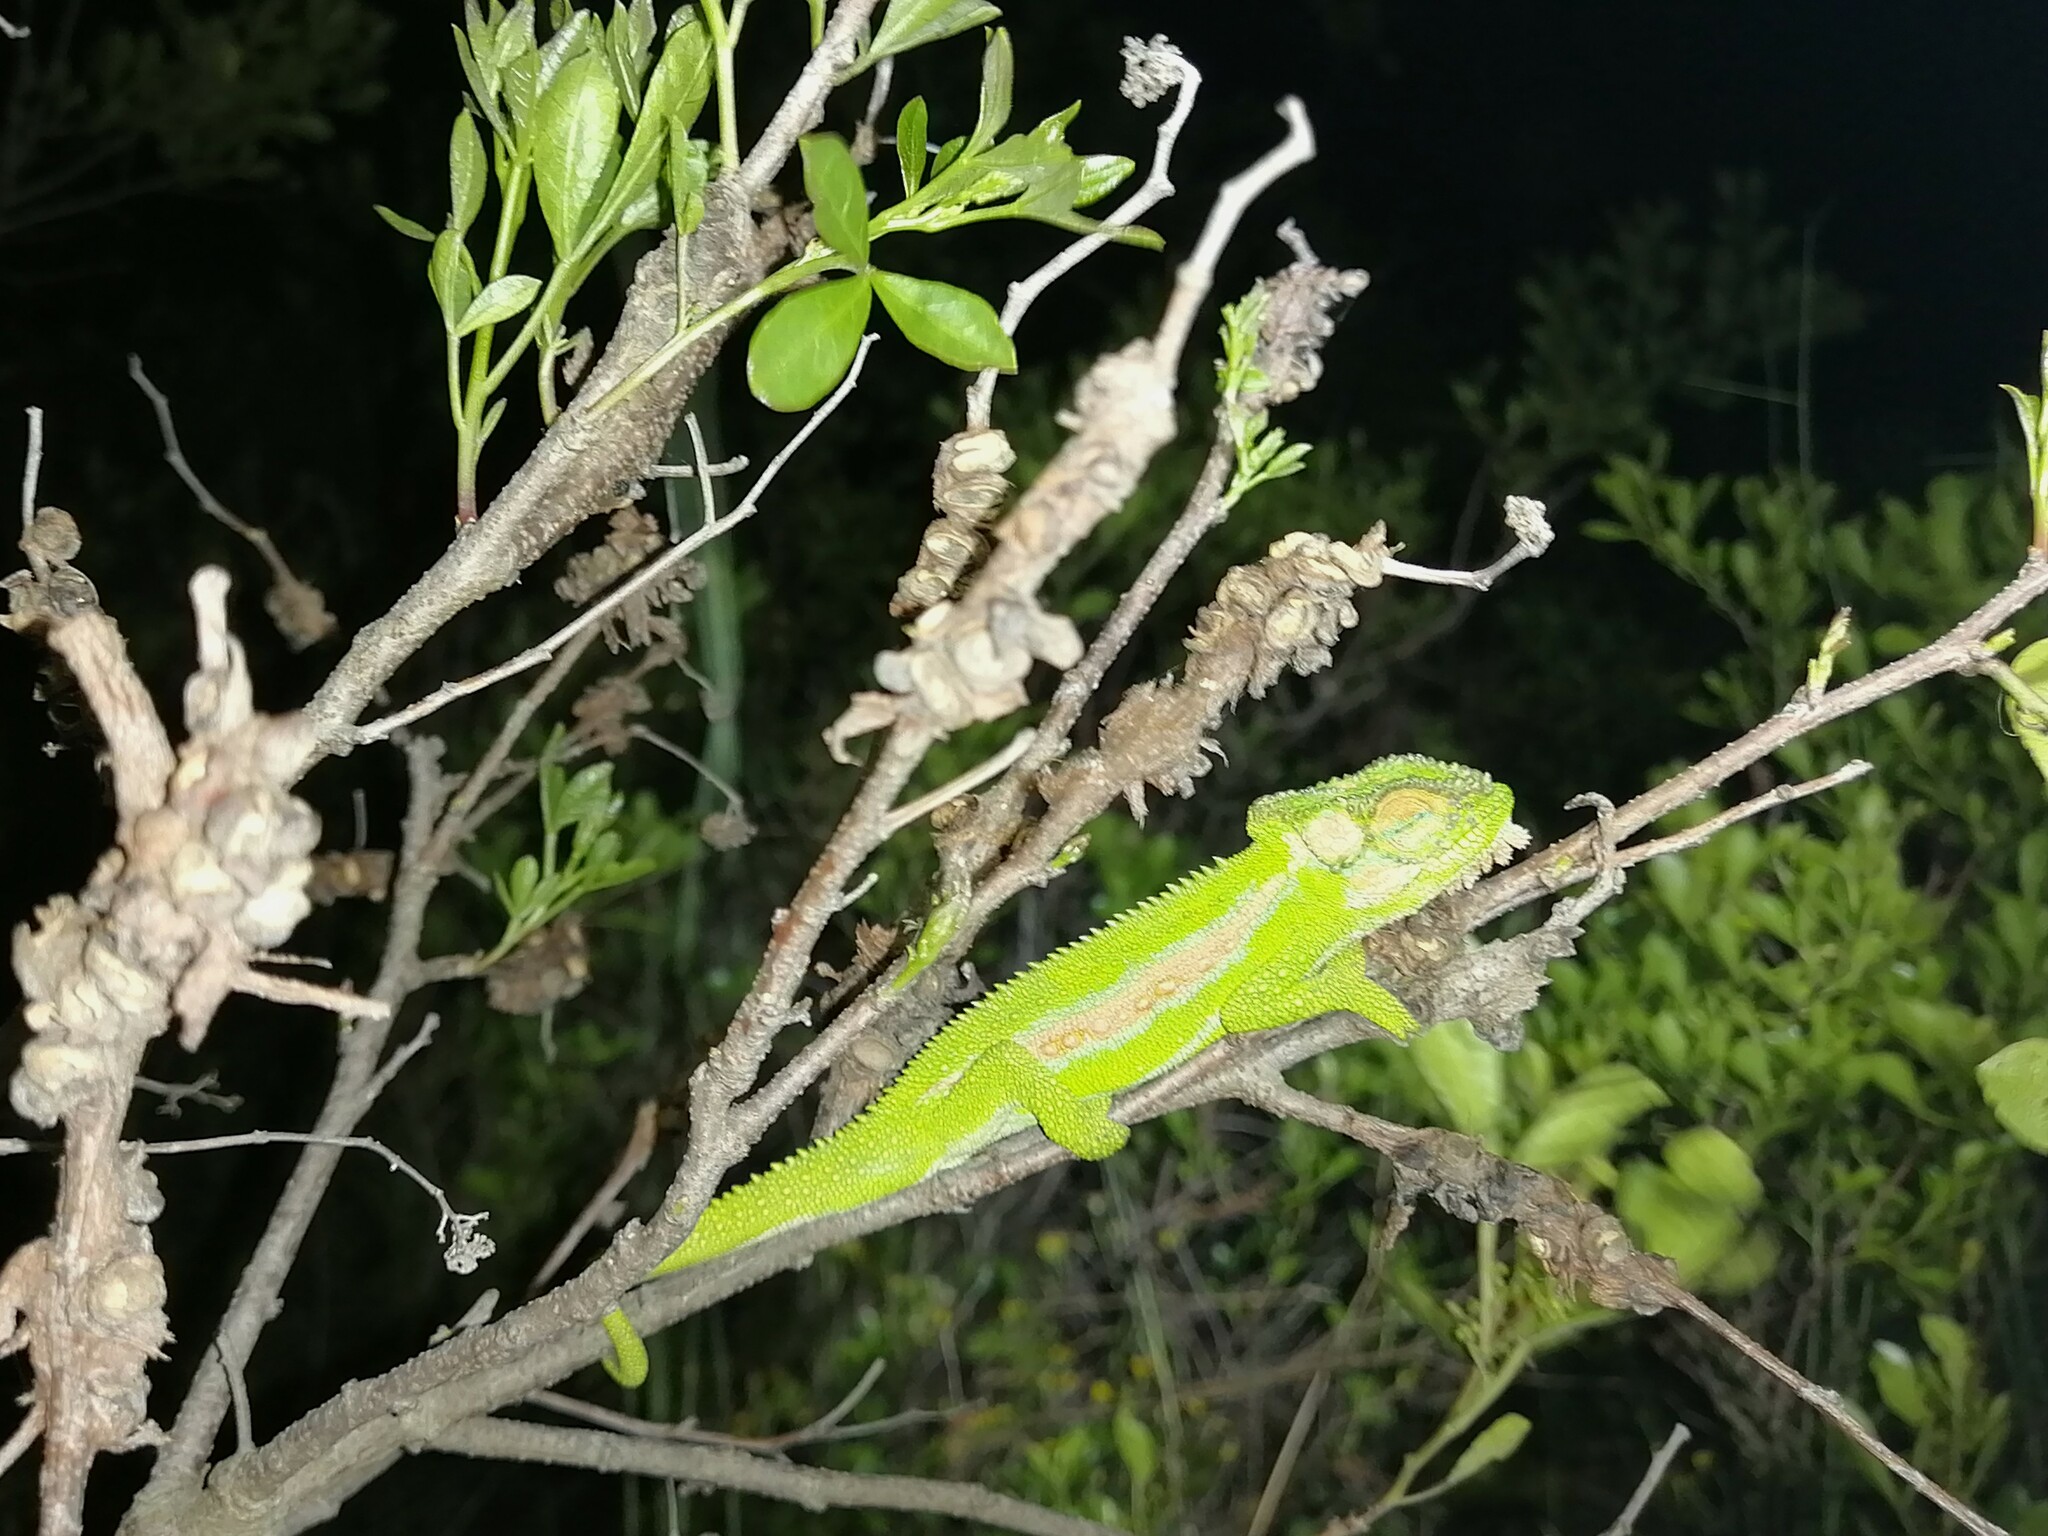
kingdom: Animalia
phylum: Chordata
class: Squamata
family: Chamaeleonidae
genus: Bradypodion
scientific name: Bradypodion pumilum
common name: Cape dwarf chameleon
